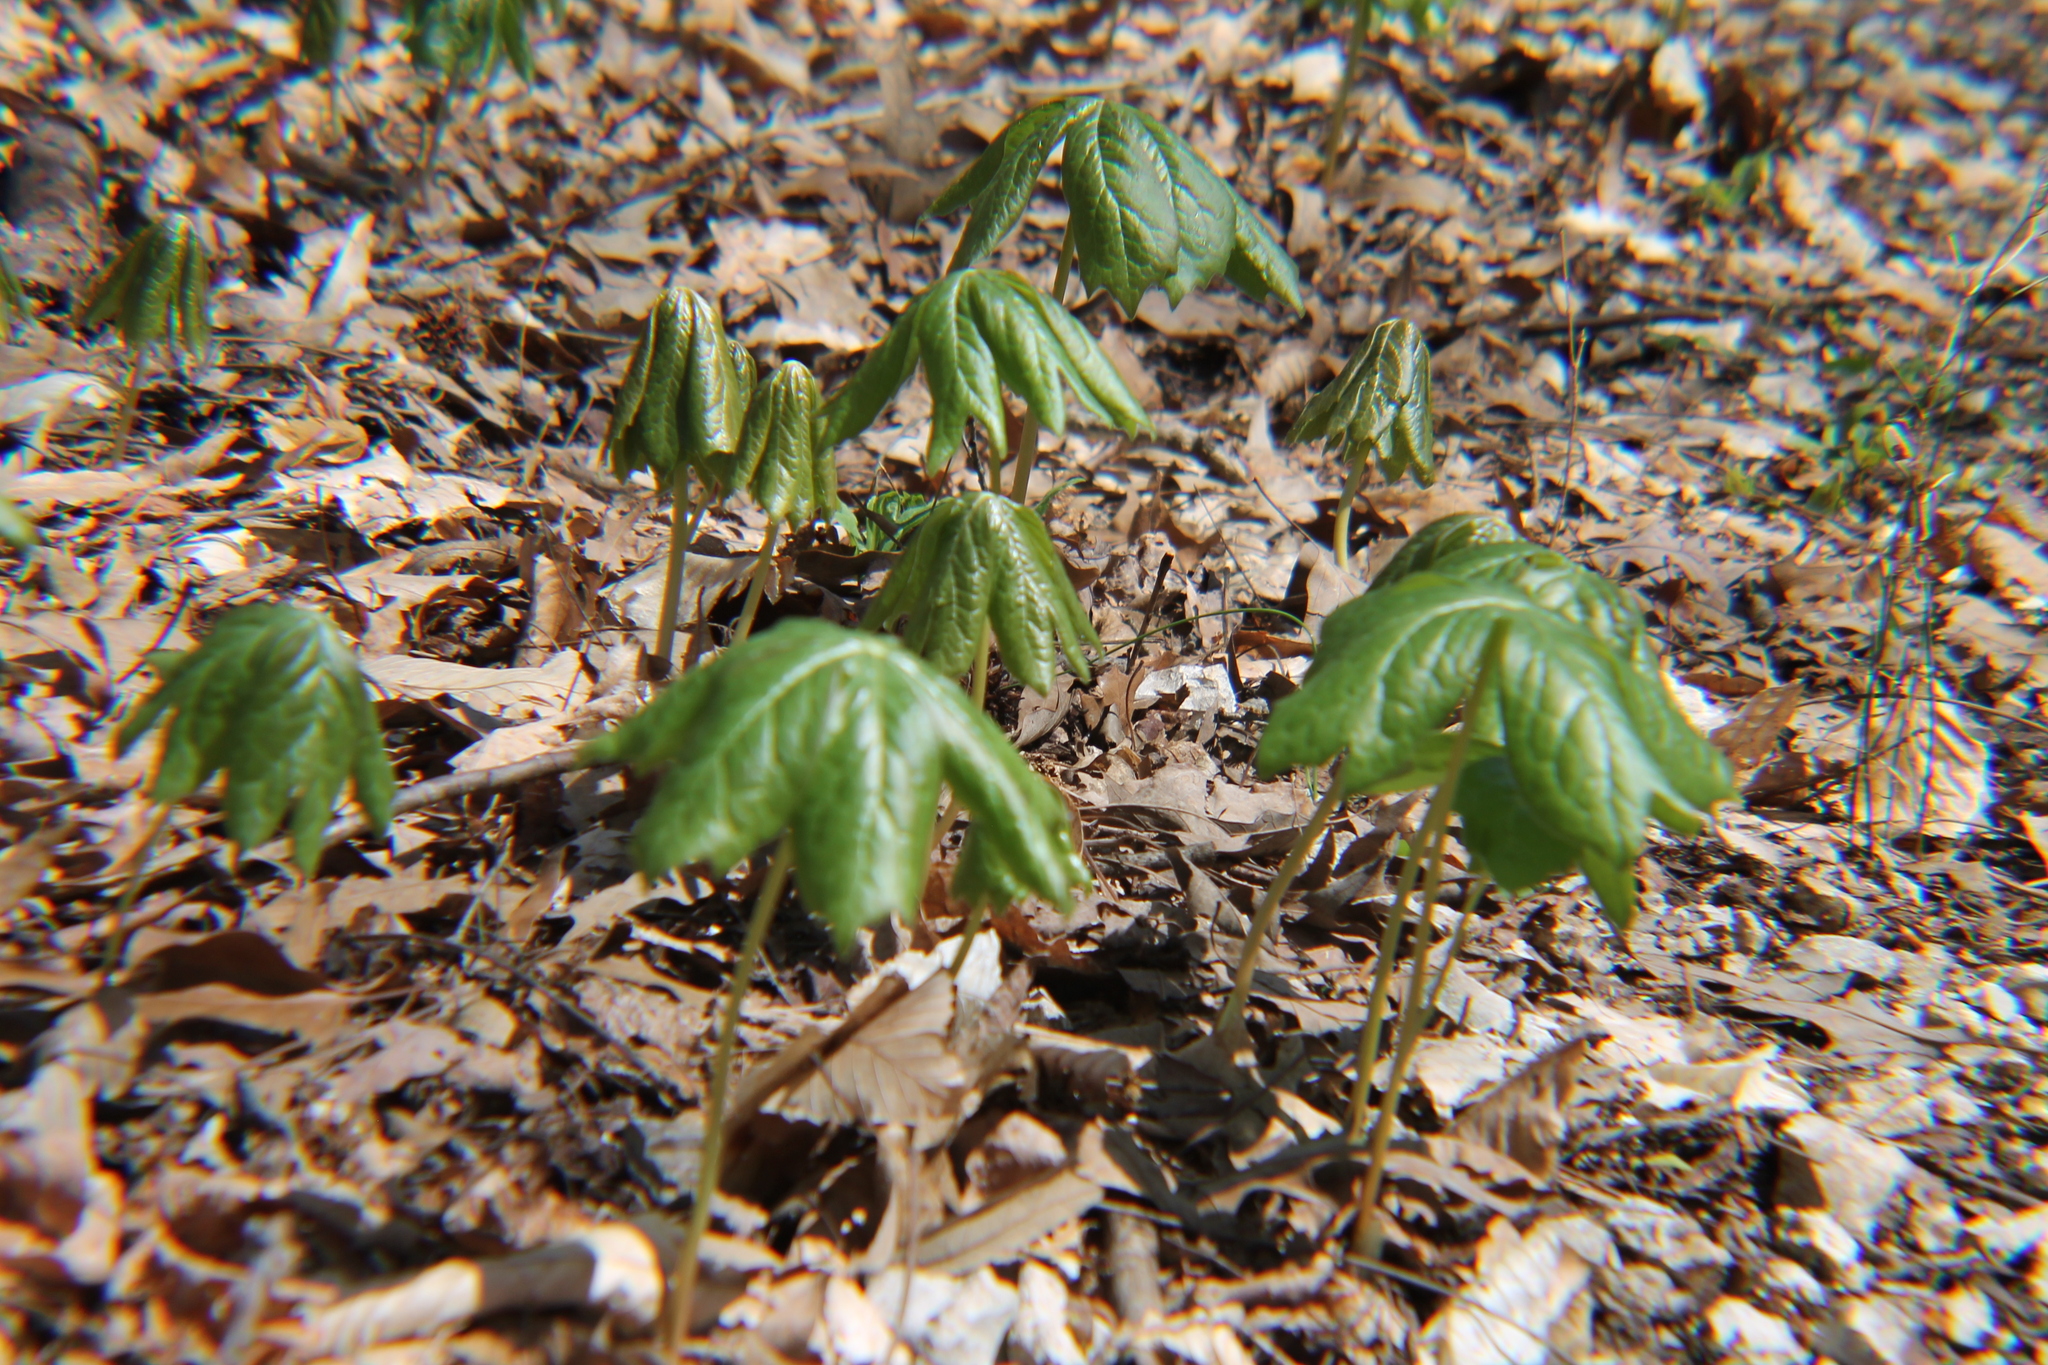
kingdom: Plantae
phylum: Tracheophyta
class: Magnoliopsida
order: Ranunculales
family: Berberidaceae
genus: Podophyllum
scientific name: Podophyllum peltatum
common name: Wild mandrake
